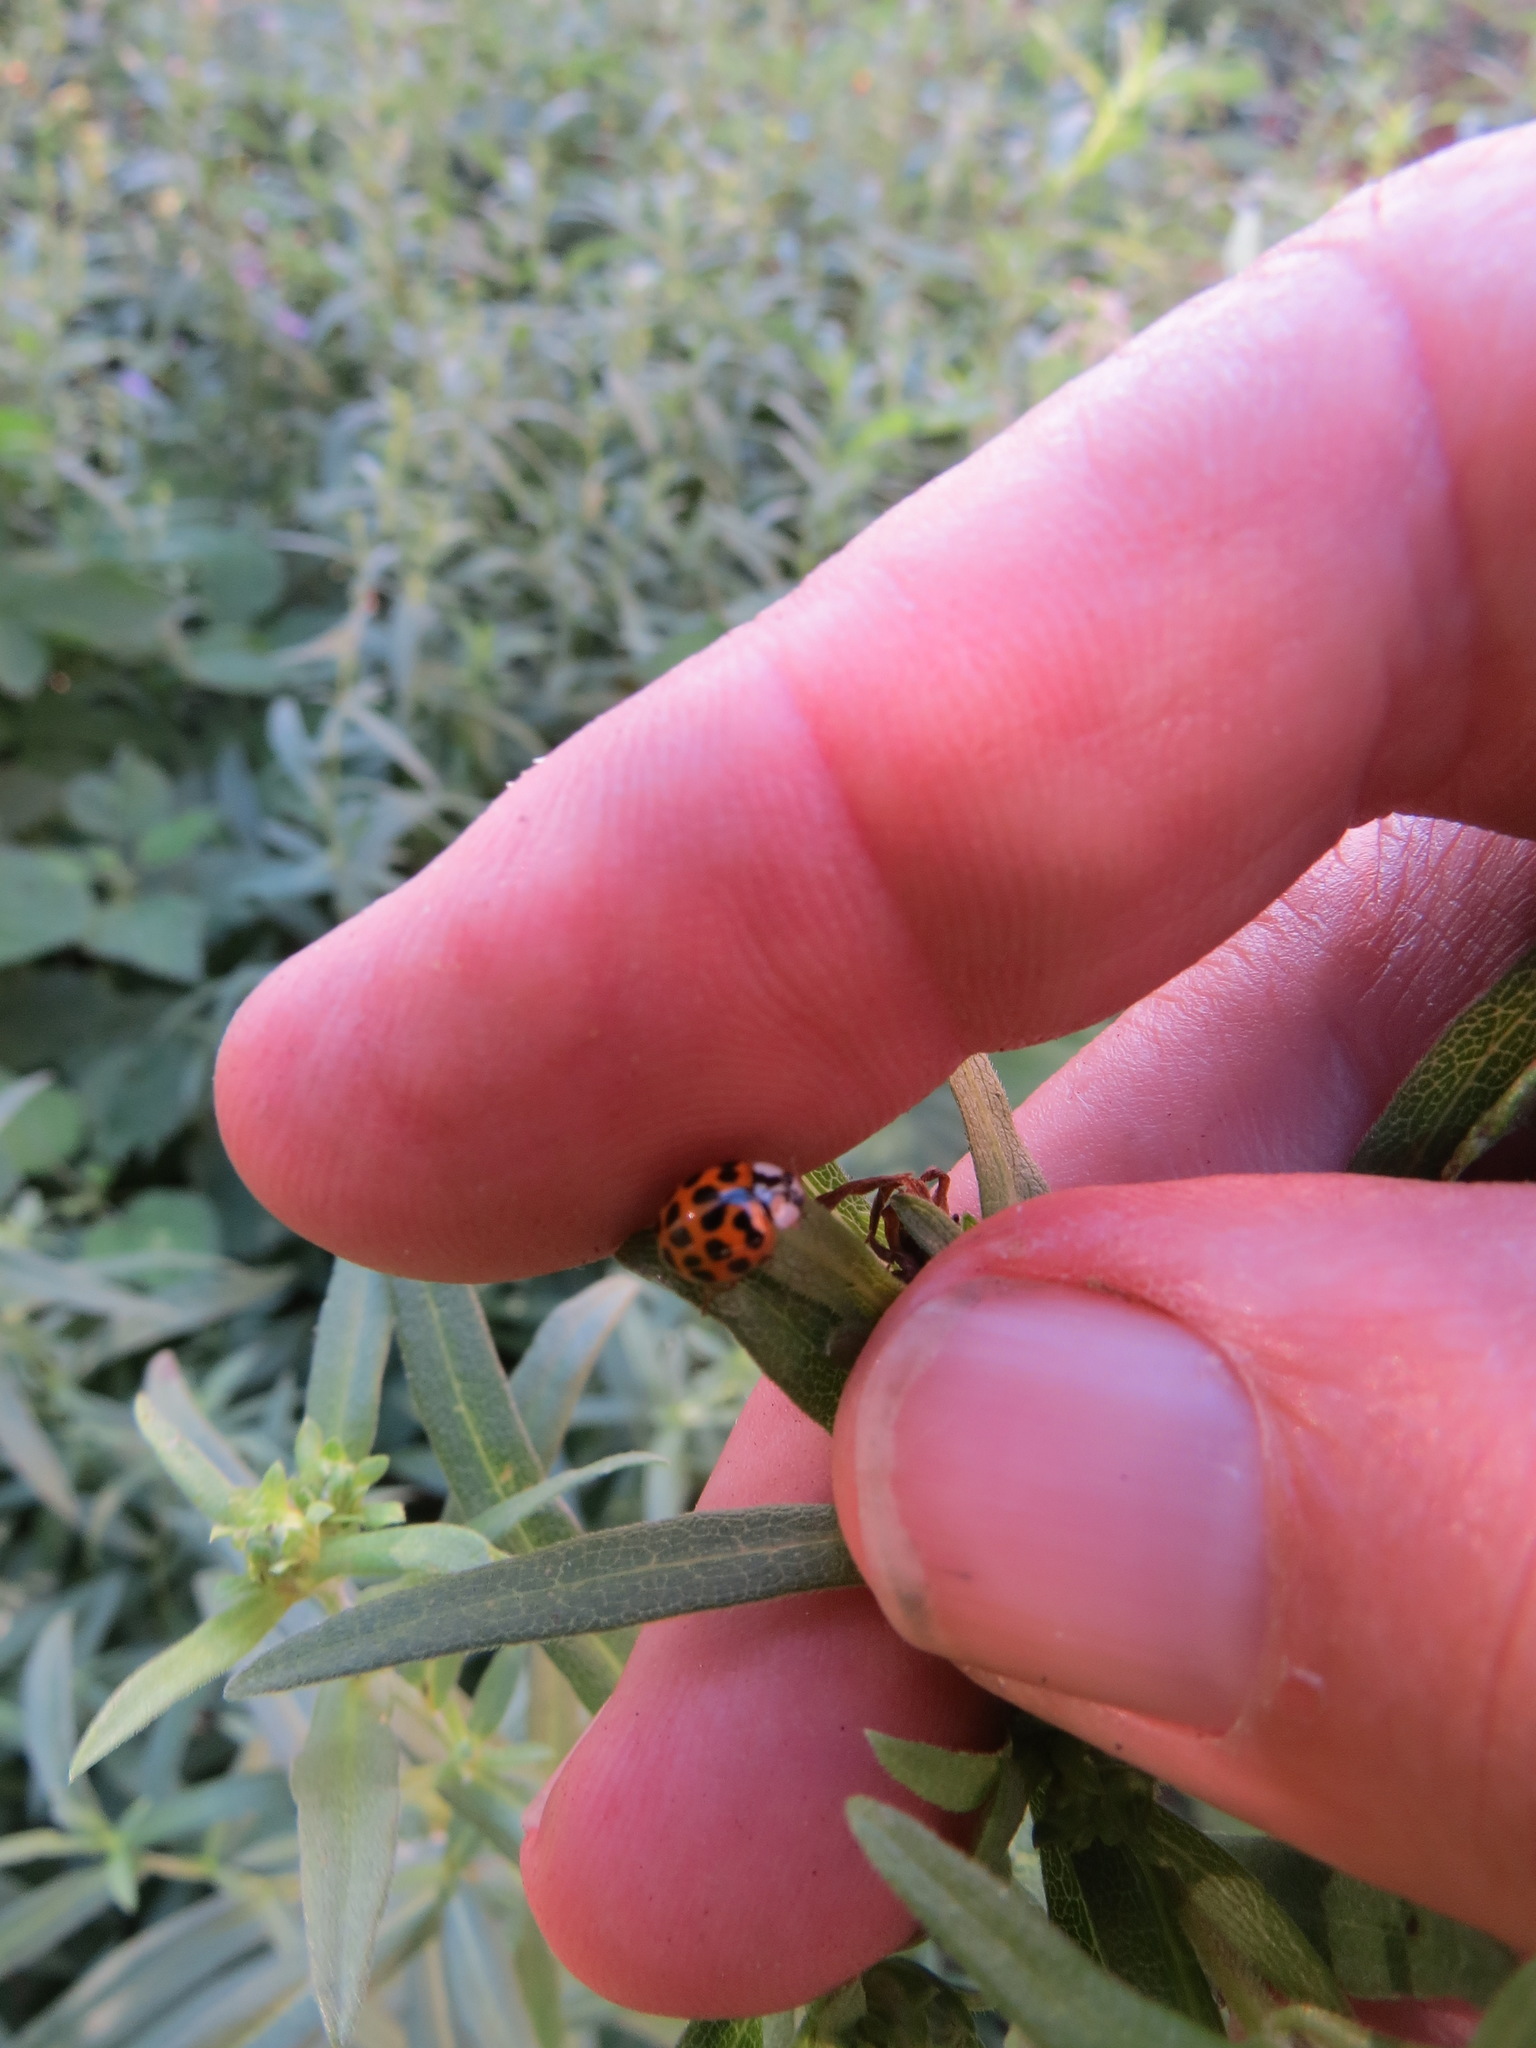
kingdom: Animalia
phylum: Arthropoda
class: Insecta
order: Coleoptera
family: Coccinellidae
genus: Harmonia
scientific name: Harmonia axyridis
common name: Harlequin ladybird
